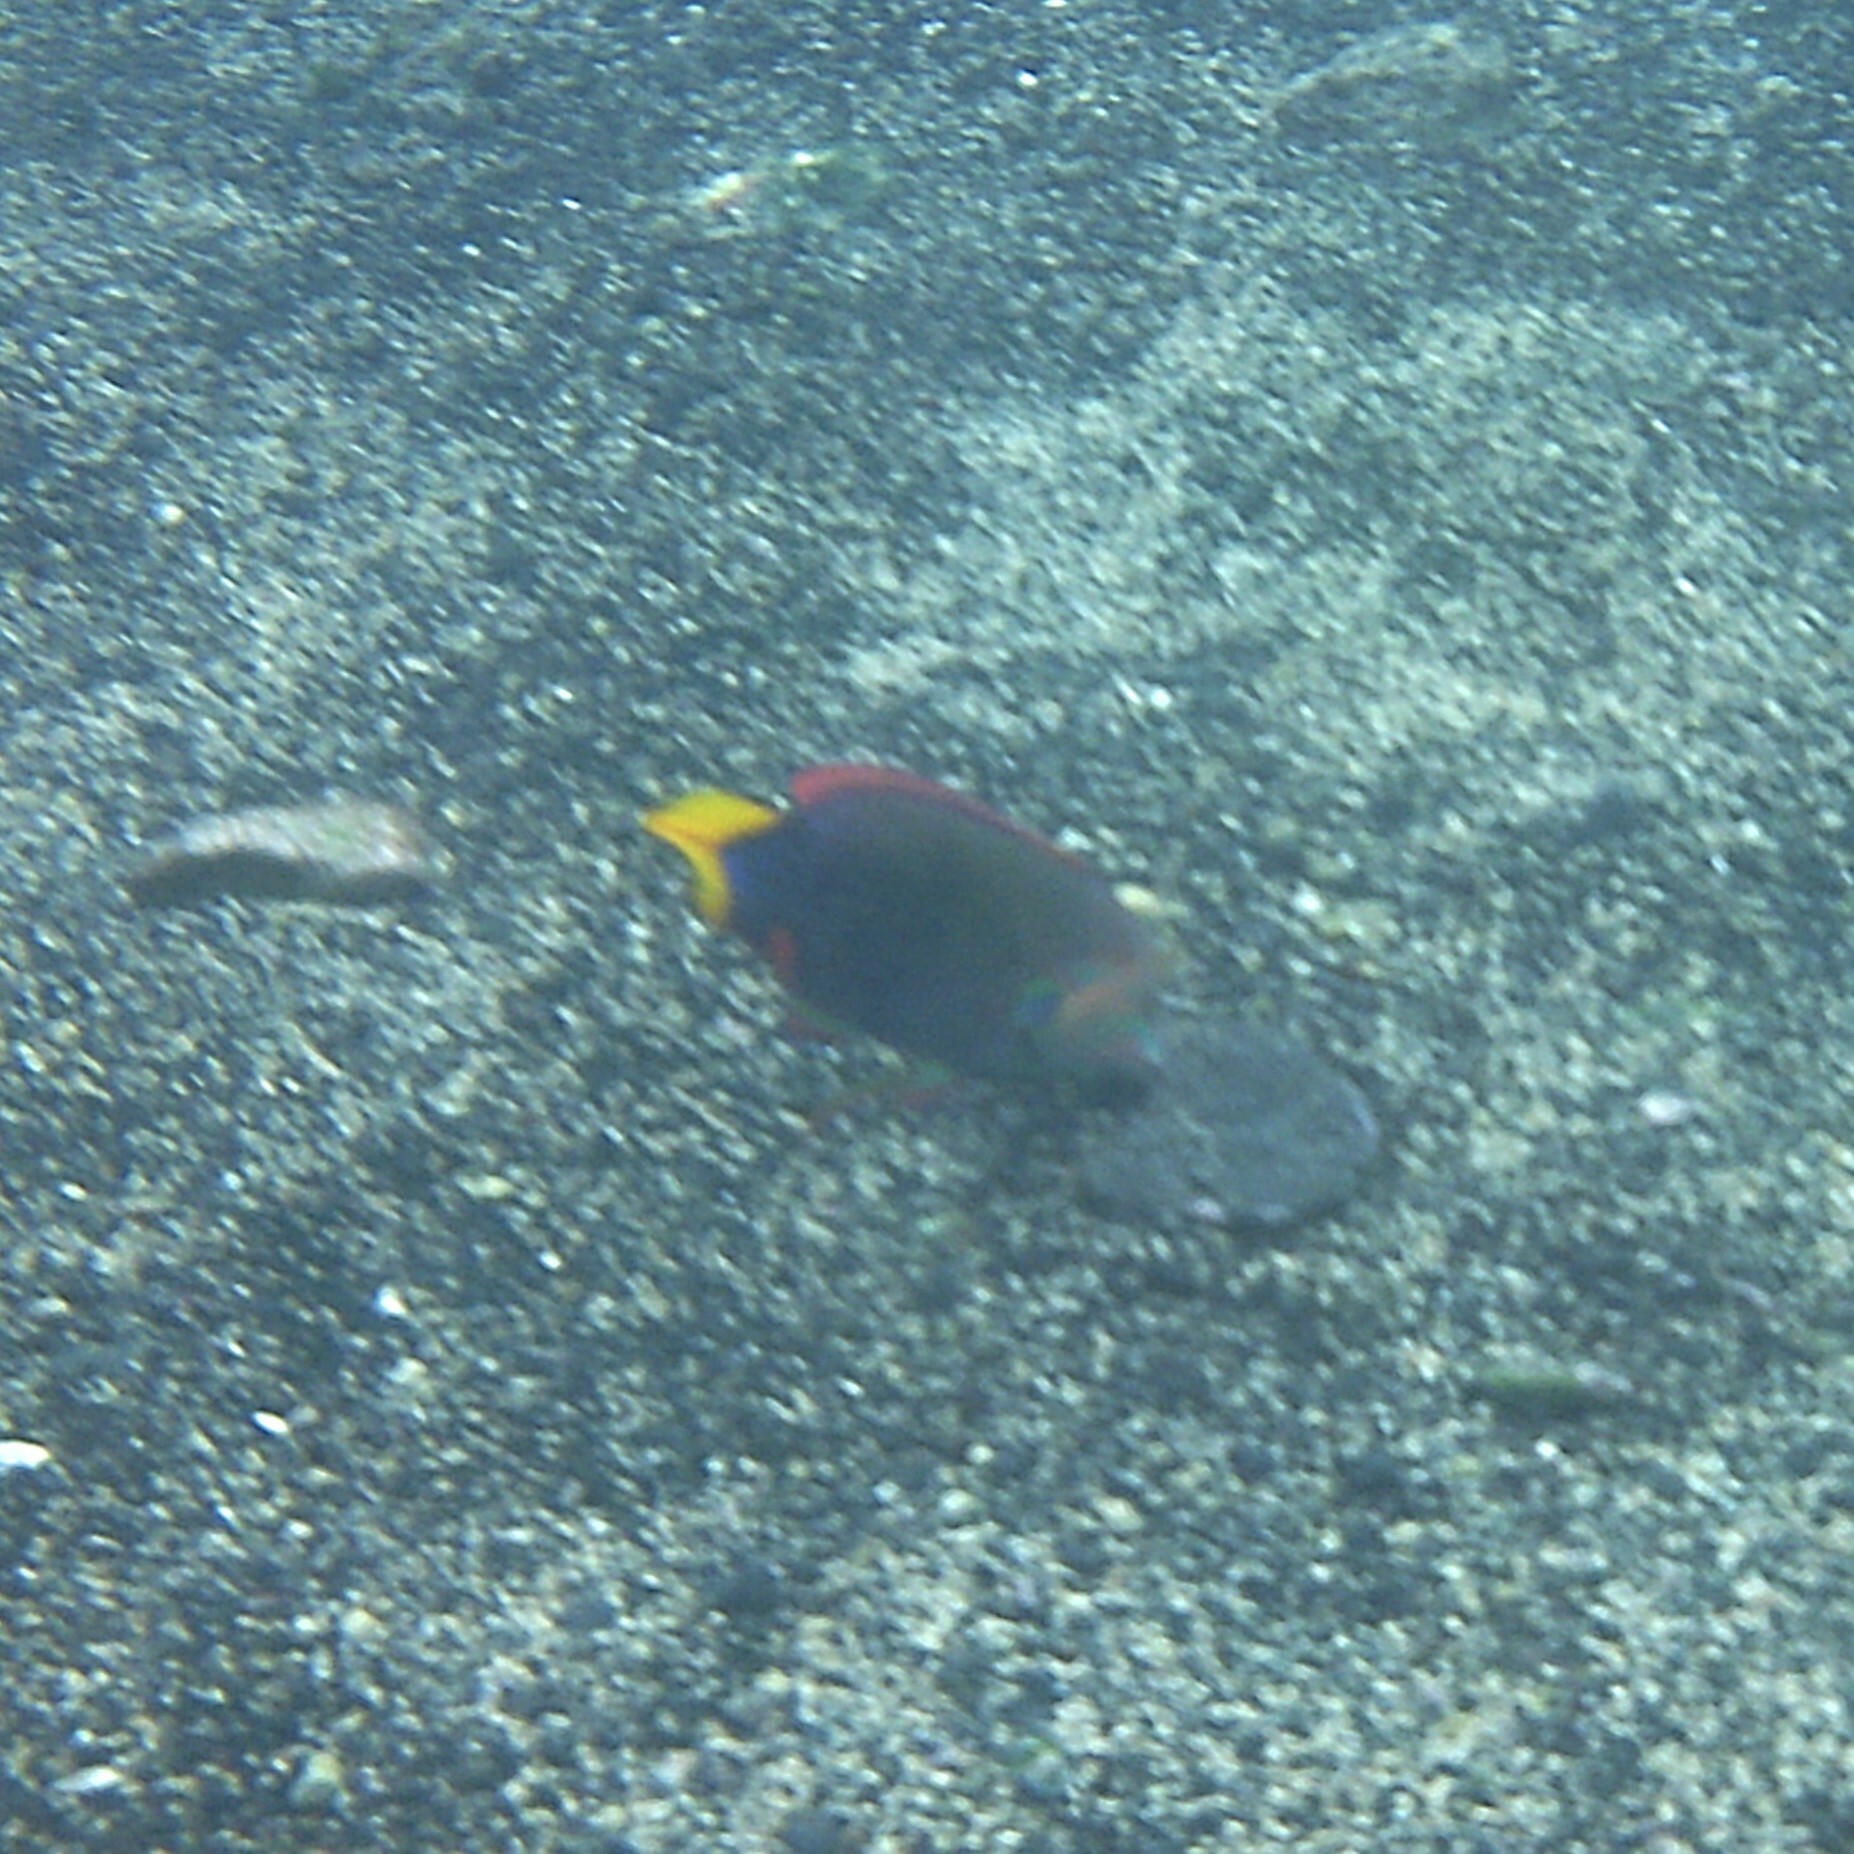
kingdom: Animalia
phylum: Chordata
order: Perciformes
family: Labridae
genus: Coris
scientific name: Coris gaimard
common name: Yellowtail coris
